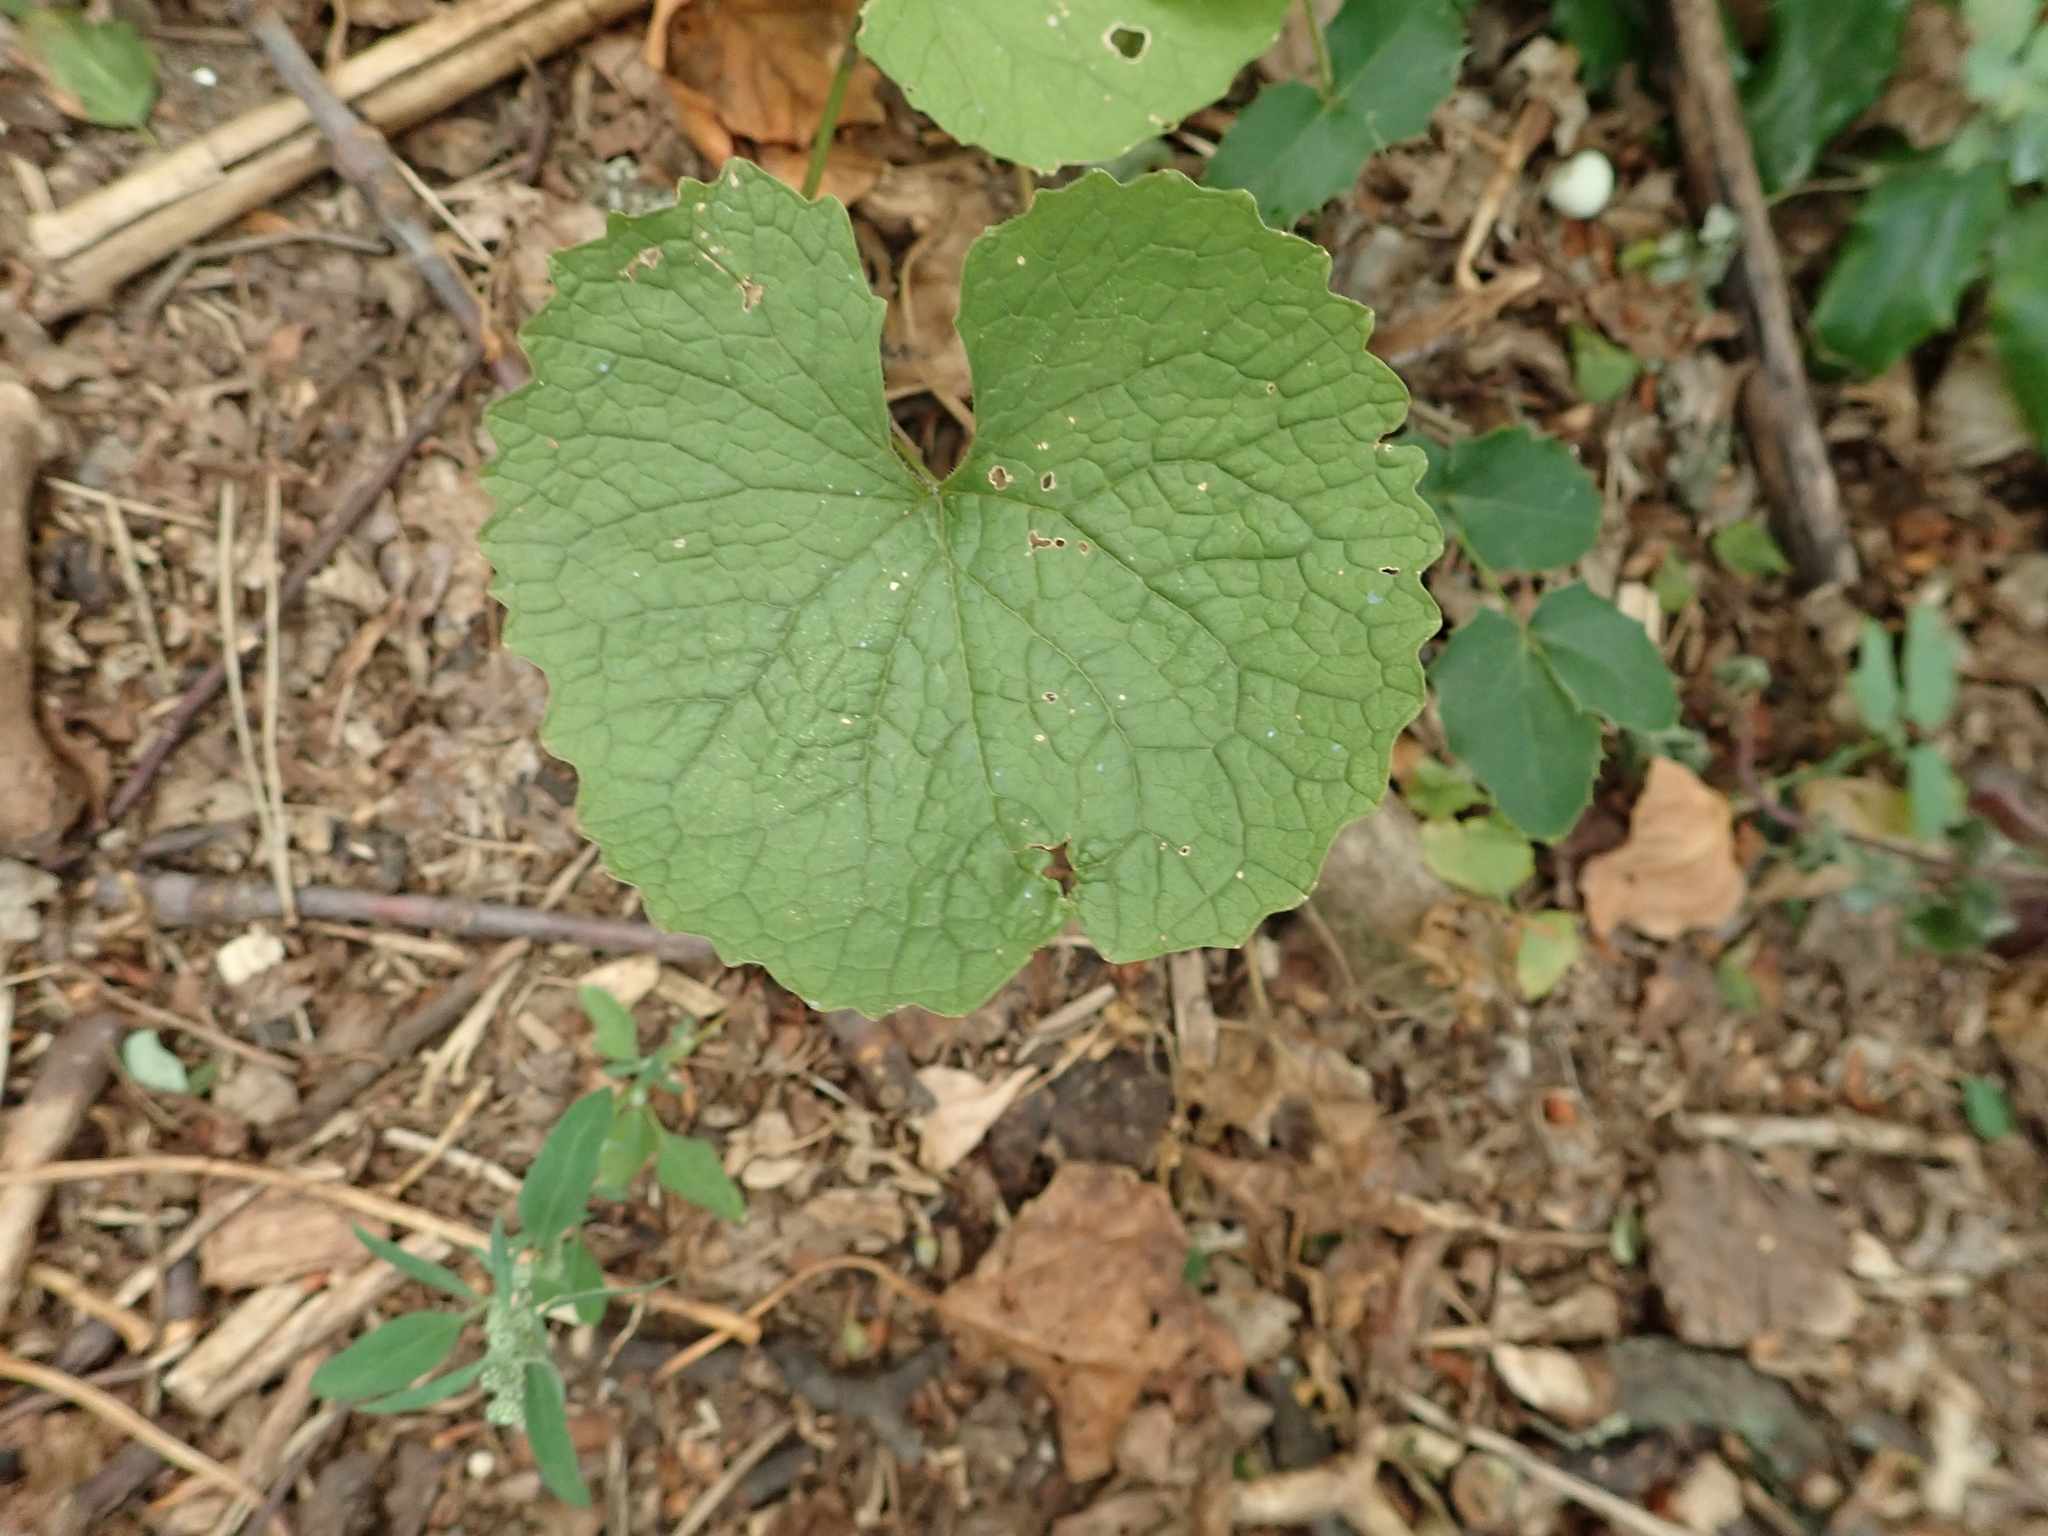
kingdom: Plantae
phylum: Tracheophyta
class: Magnoliopsida
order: Brassicales
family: Brassicaceae
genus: Alliaria
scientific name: Alliaria petiolata
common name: Garlic mustard
